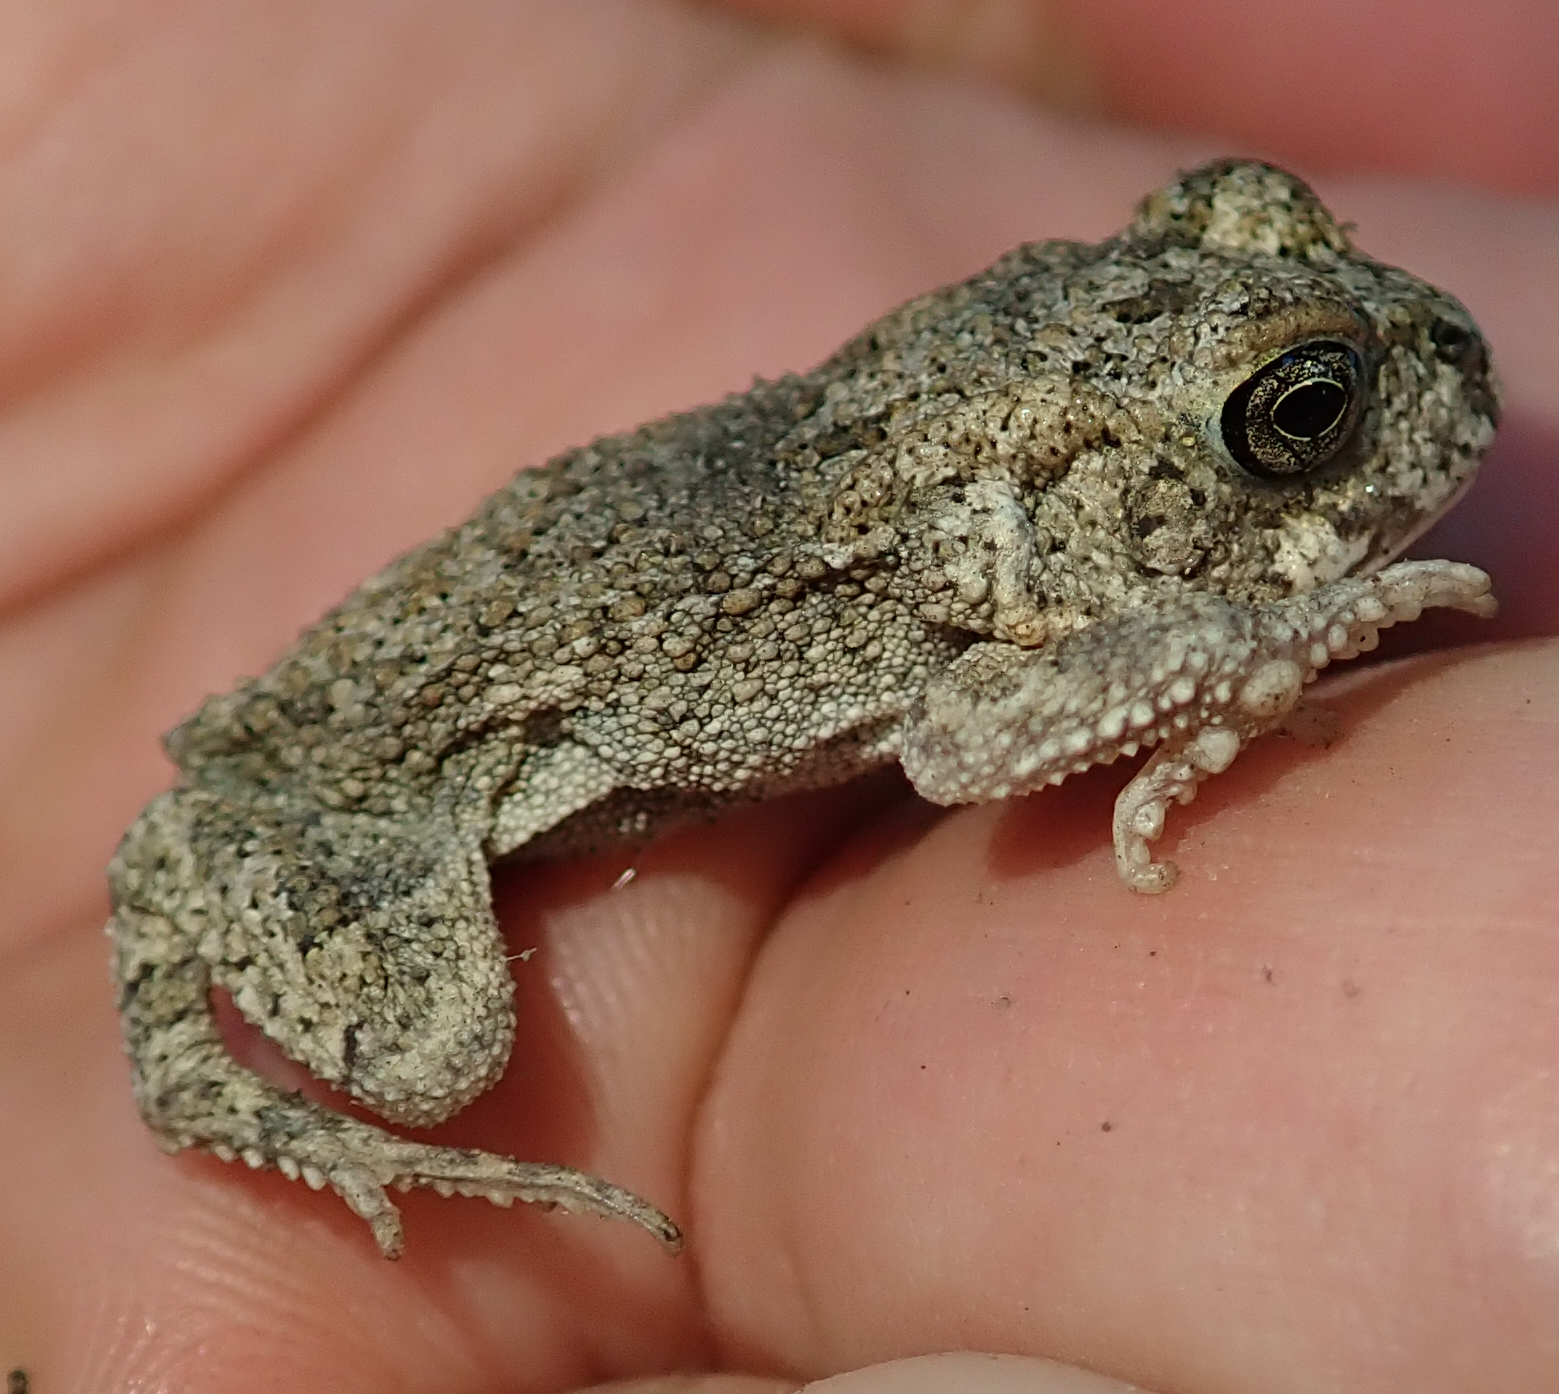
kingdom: Animalia
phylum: Chordata
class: Amphibia
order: Anura
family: Bufonidae
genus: Sclerophrys
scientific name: Sclerophrys gutturalis
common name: African common toad
